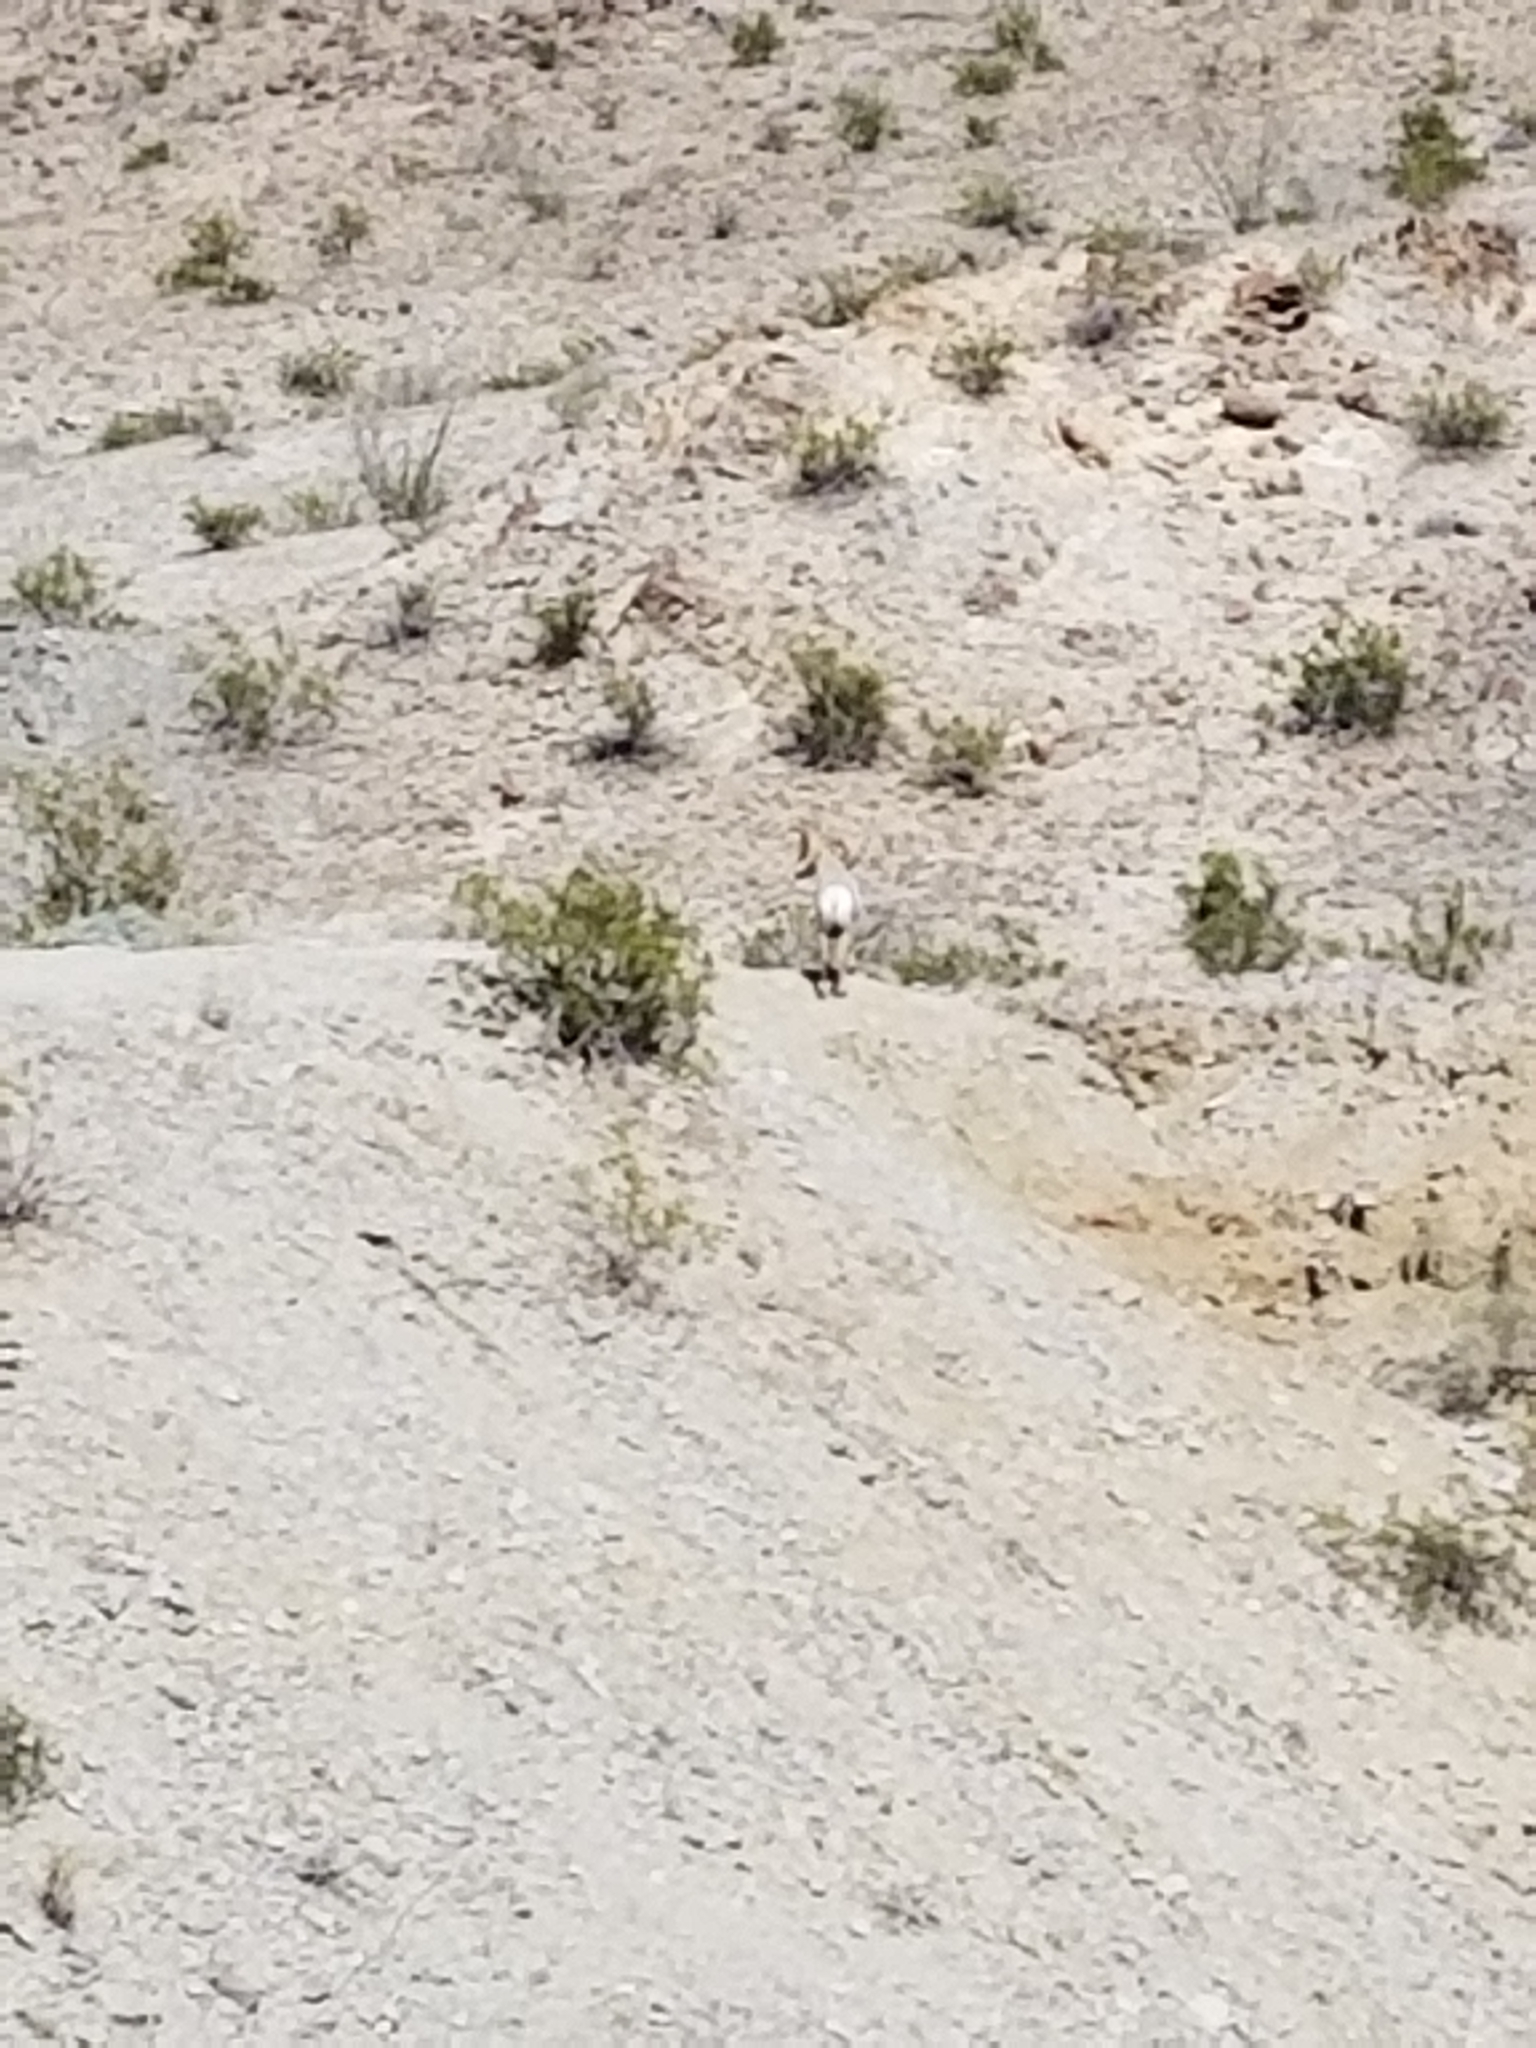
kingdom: Animalia
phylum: Chordata
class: Mammalia
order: Artiodactyla
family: Bovidae
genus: Ovis
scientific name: Ovis canadensis
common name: Bighorn sheep
